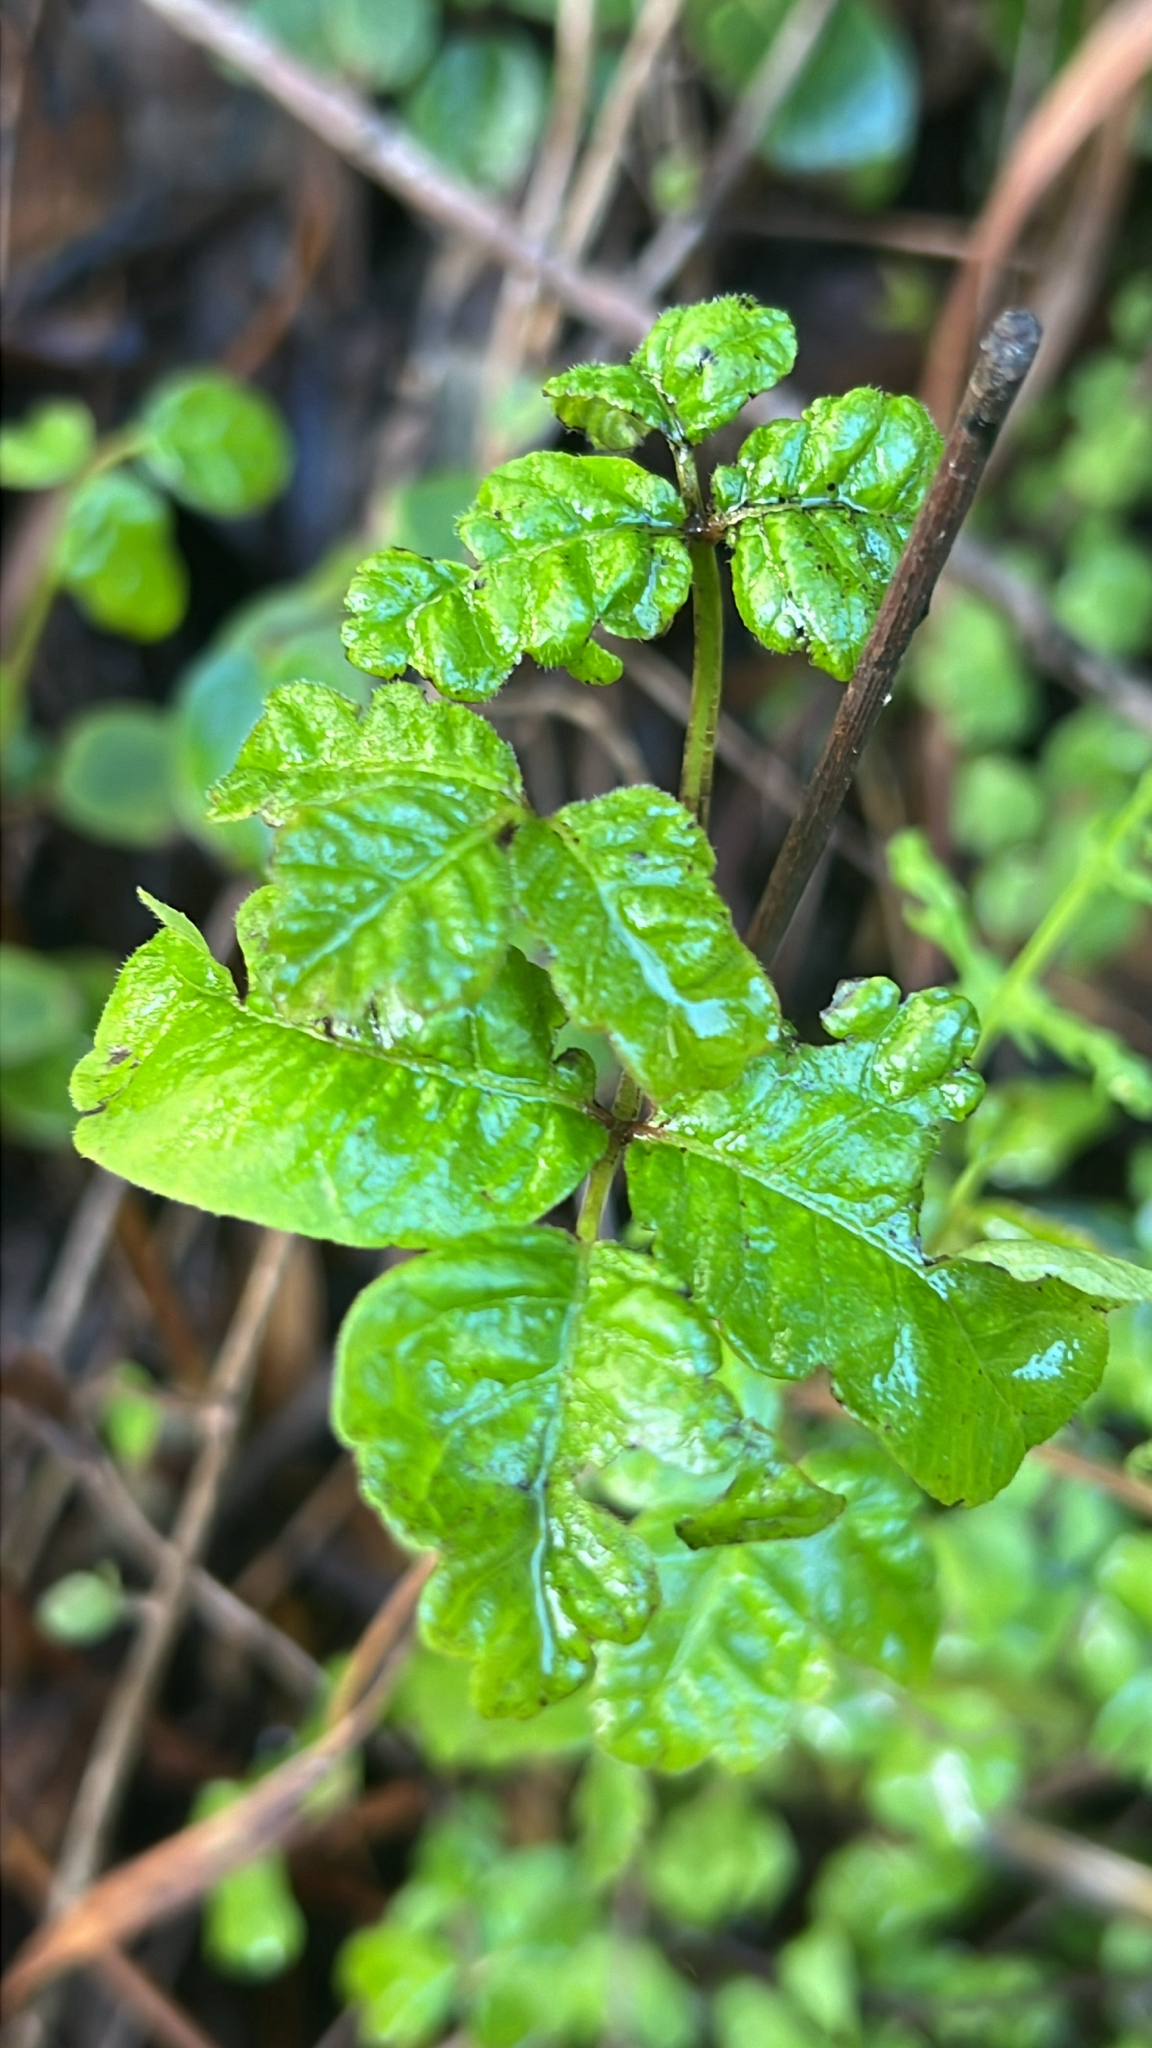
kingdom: Plantae
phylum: Tracheophyta
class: Magnoliopsida
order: Sapindales
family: Anacardiaceae
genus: Toxicodendron
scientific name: Toxicodendron diversilobum
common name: Pacific poison-oak
